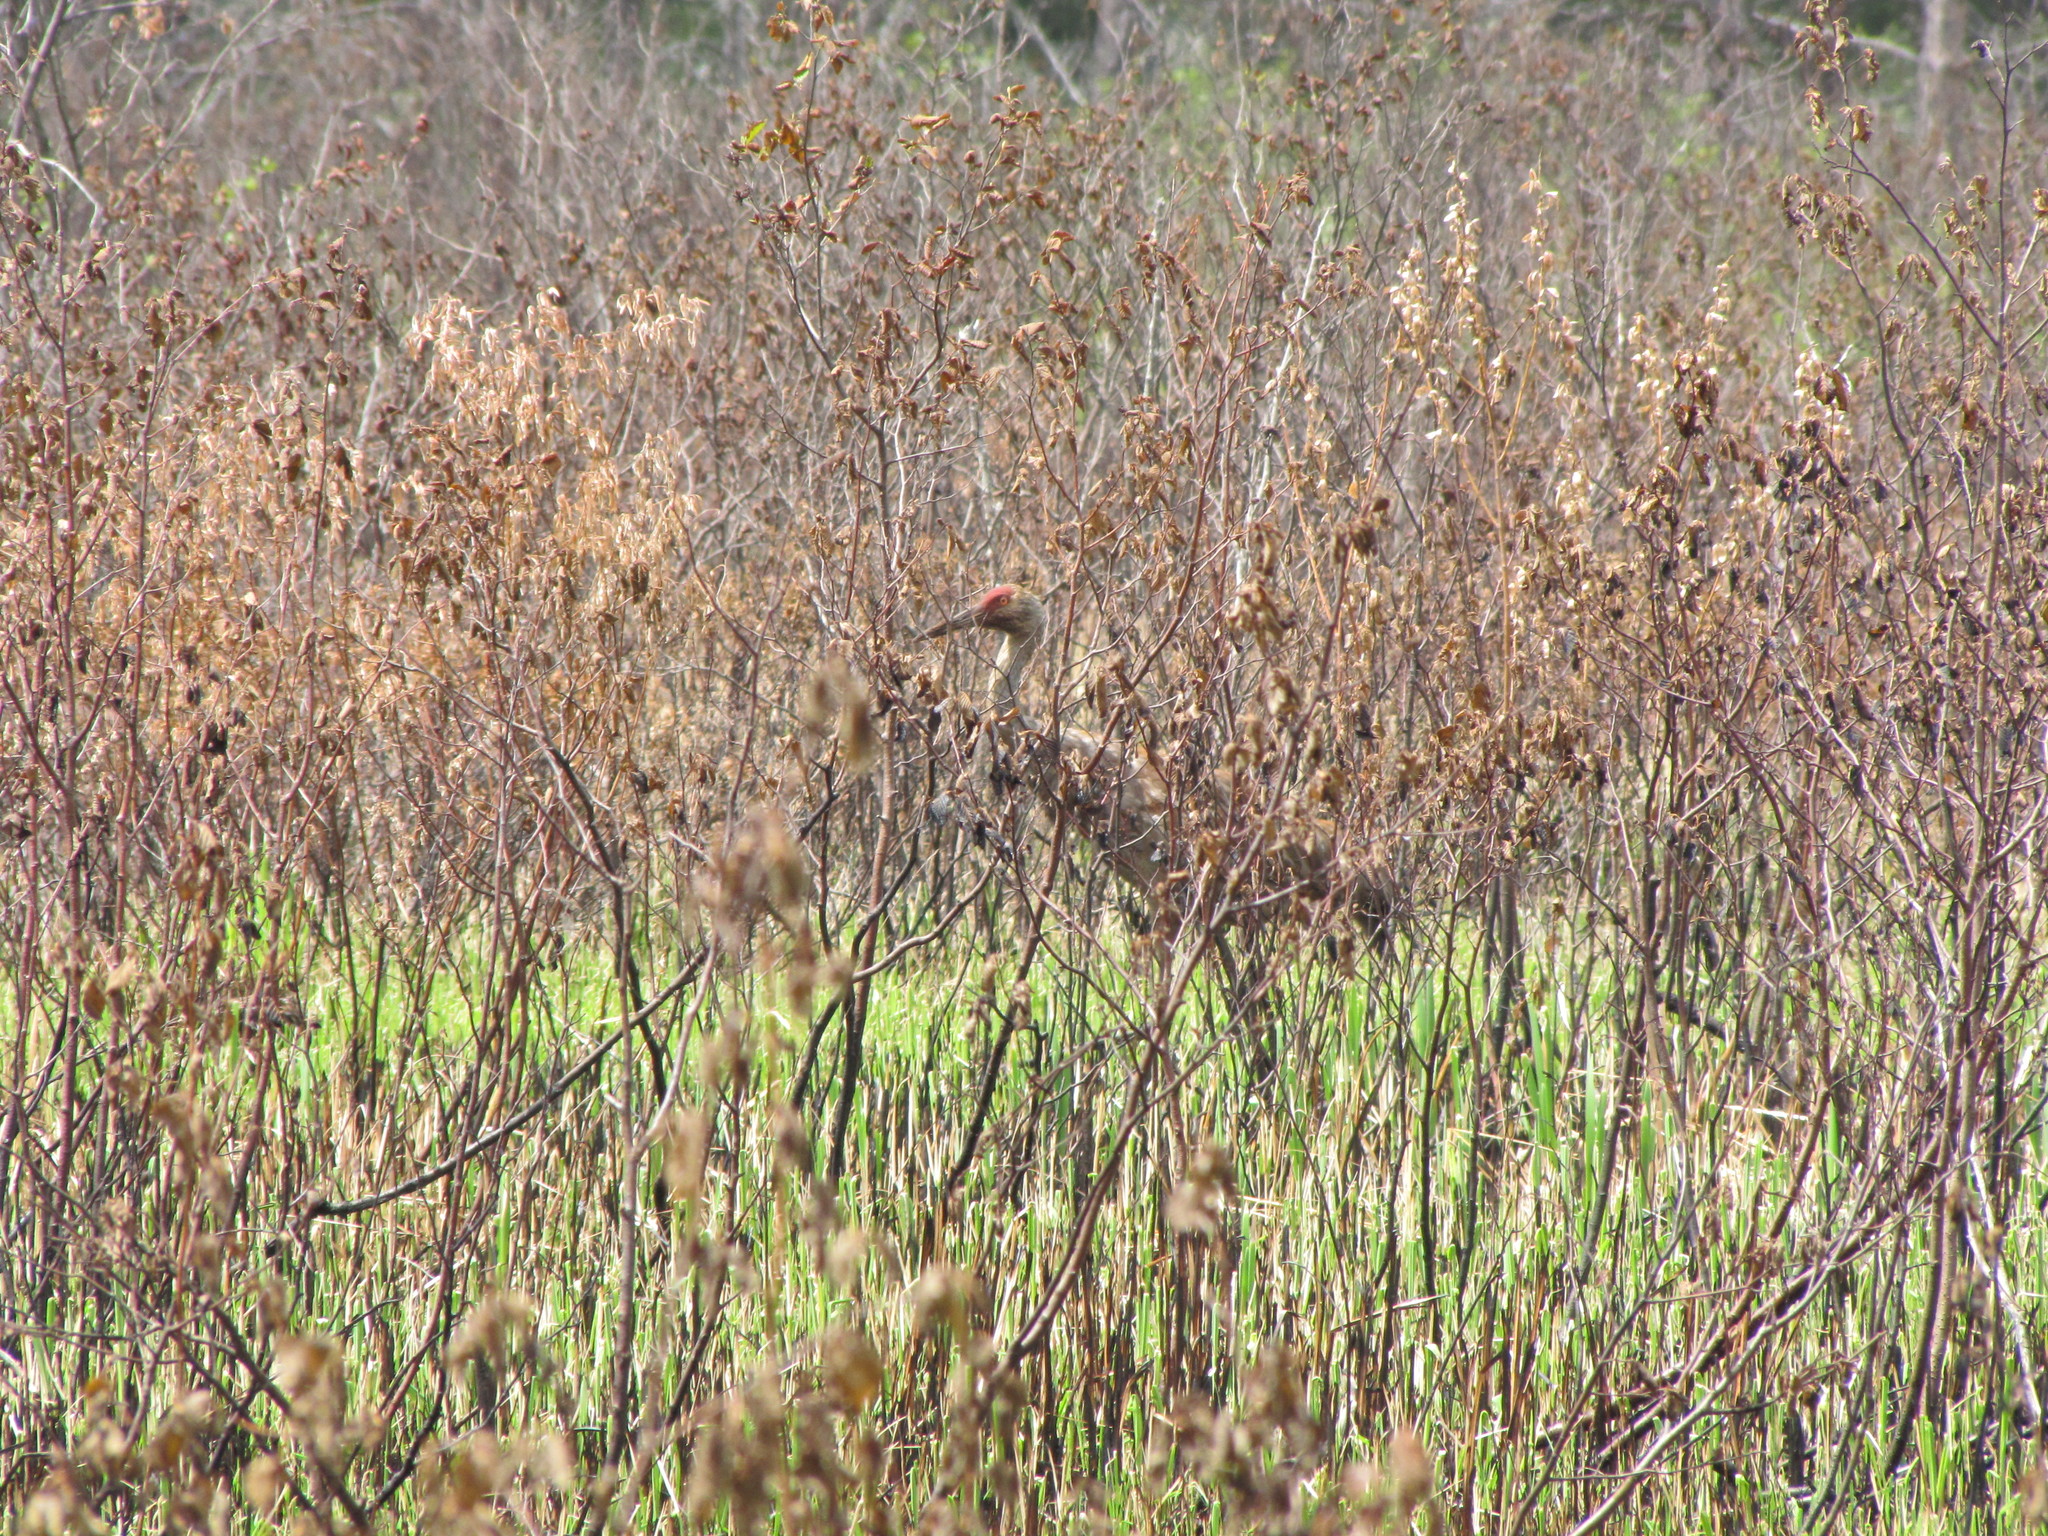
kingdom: Animalia
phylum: Chordata
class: Aves
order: Gruiformes
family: Gruidae
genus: Grus
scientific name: Grus canadensis
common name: Sandhill crane
